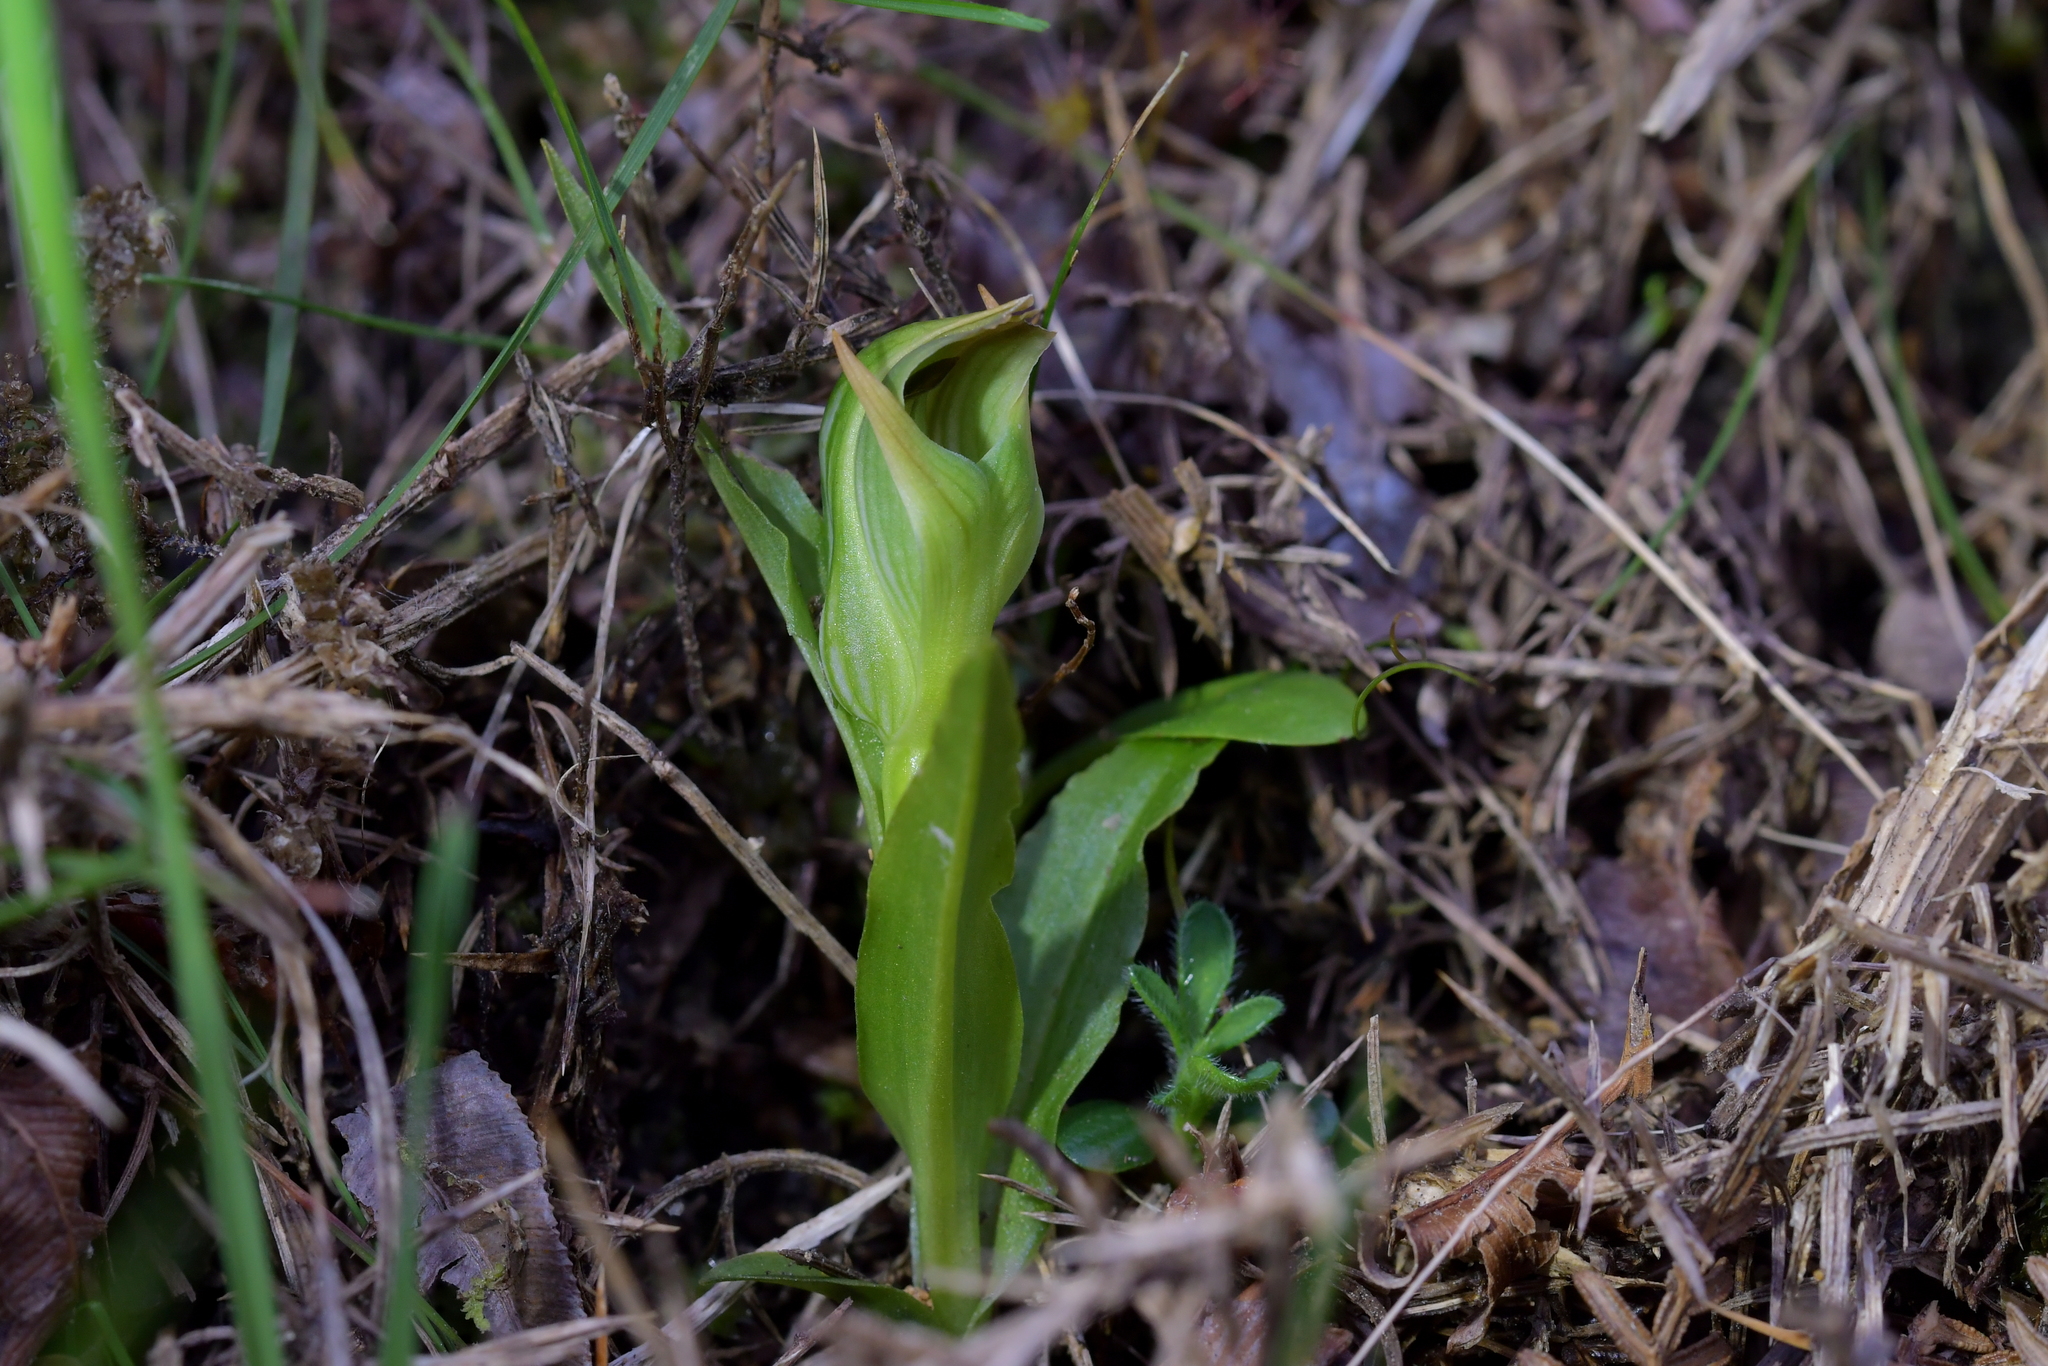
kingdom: Plantae
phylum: Tracheophyta
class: Liliopsida
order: Asparagales
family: Orchidaceae
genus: Pterostylis
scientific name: Pterostylis montana
